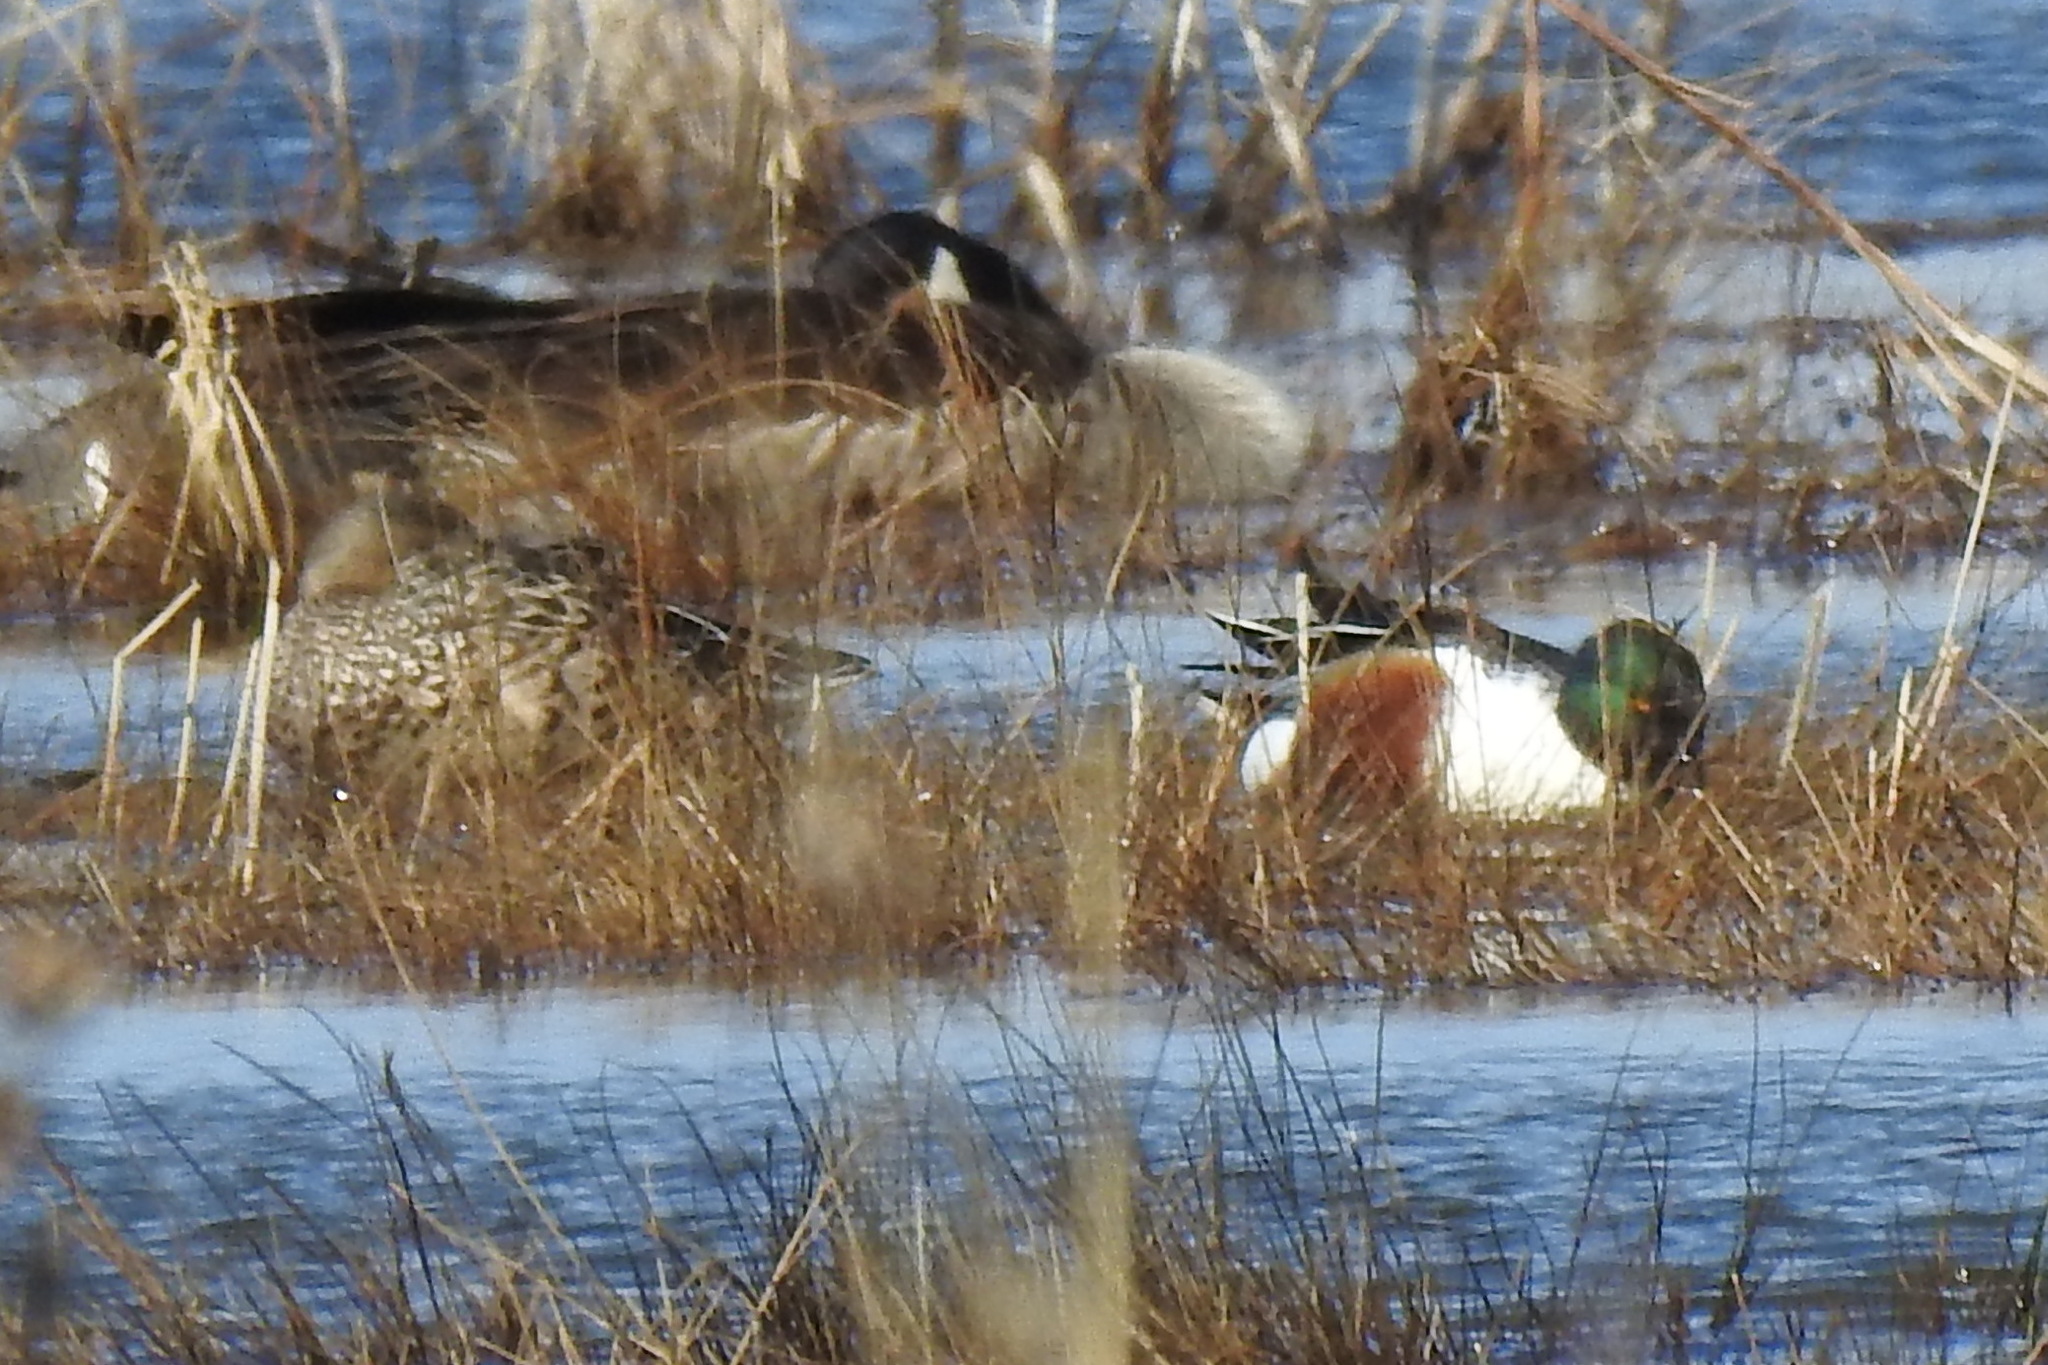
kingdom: Animalia
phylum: Chordata
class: Aves
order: Anseriformes
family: Anatidae
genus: Spatula
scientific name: Spatula clypeata
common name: Northern shoveler
